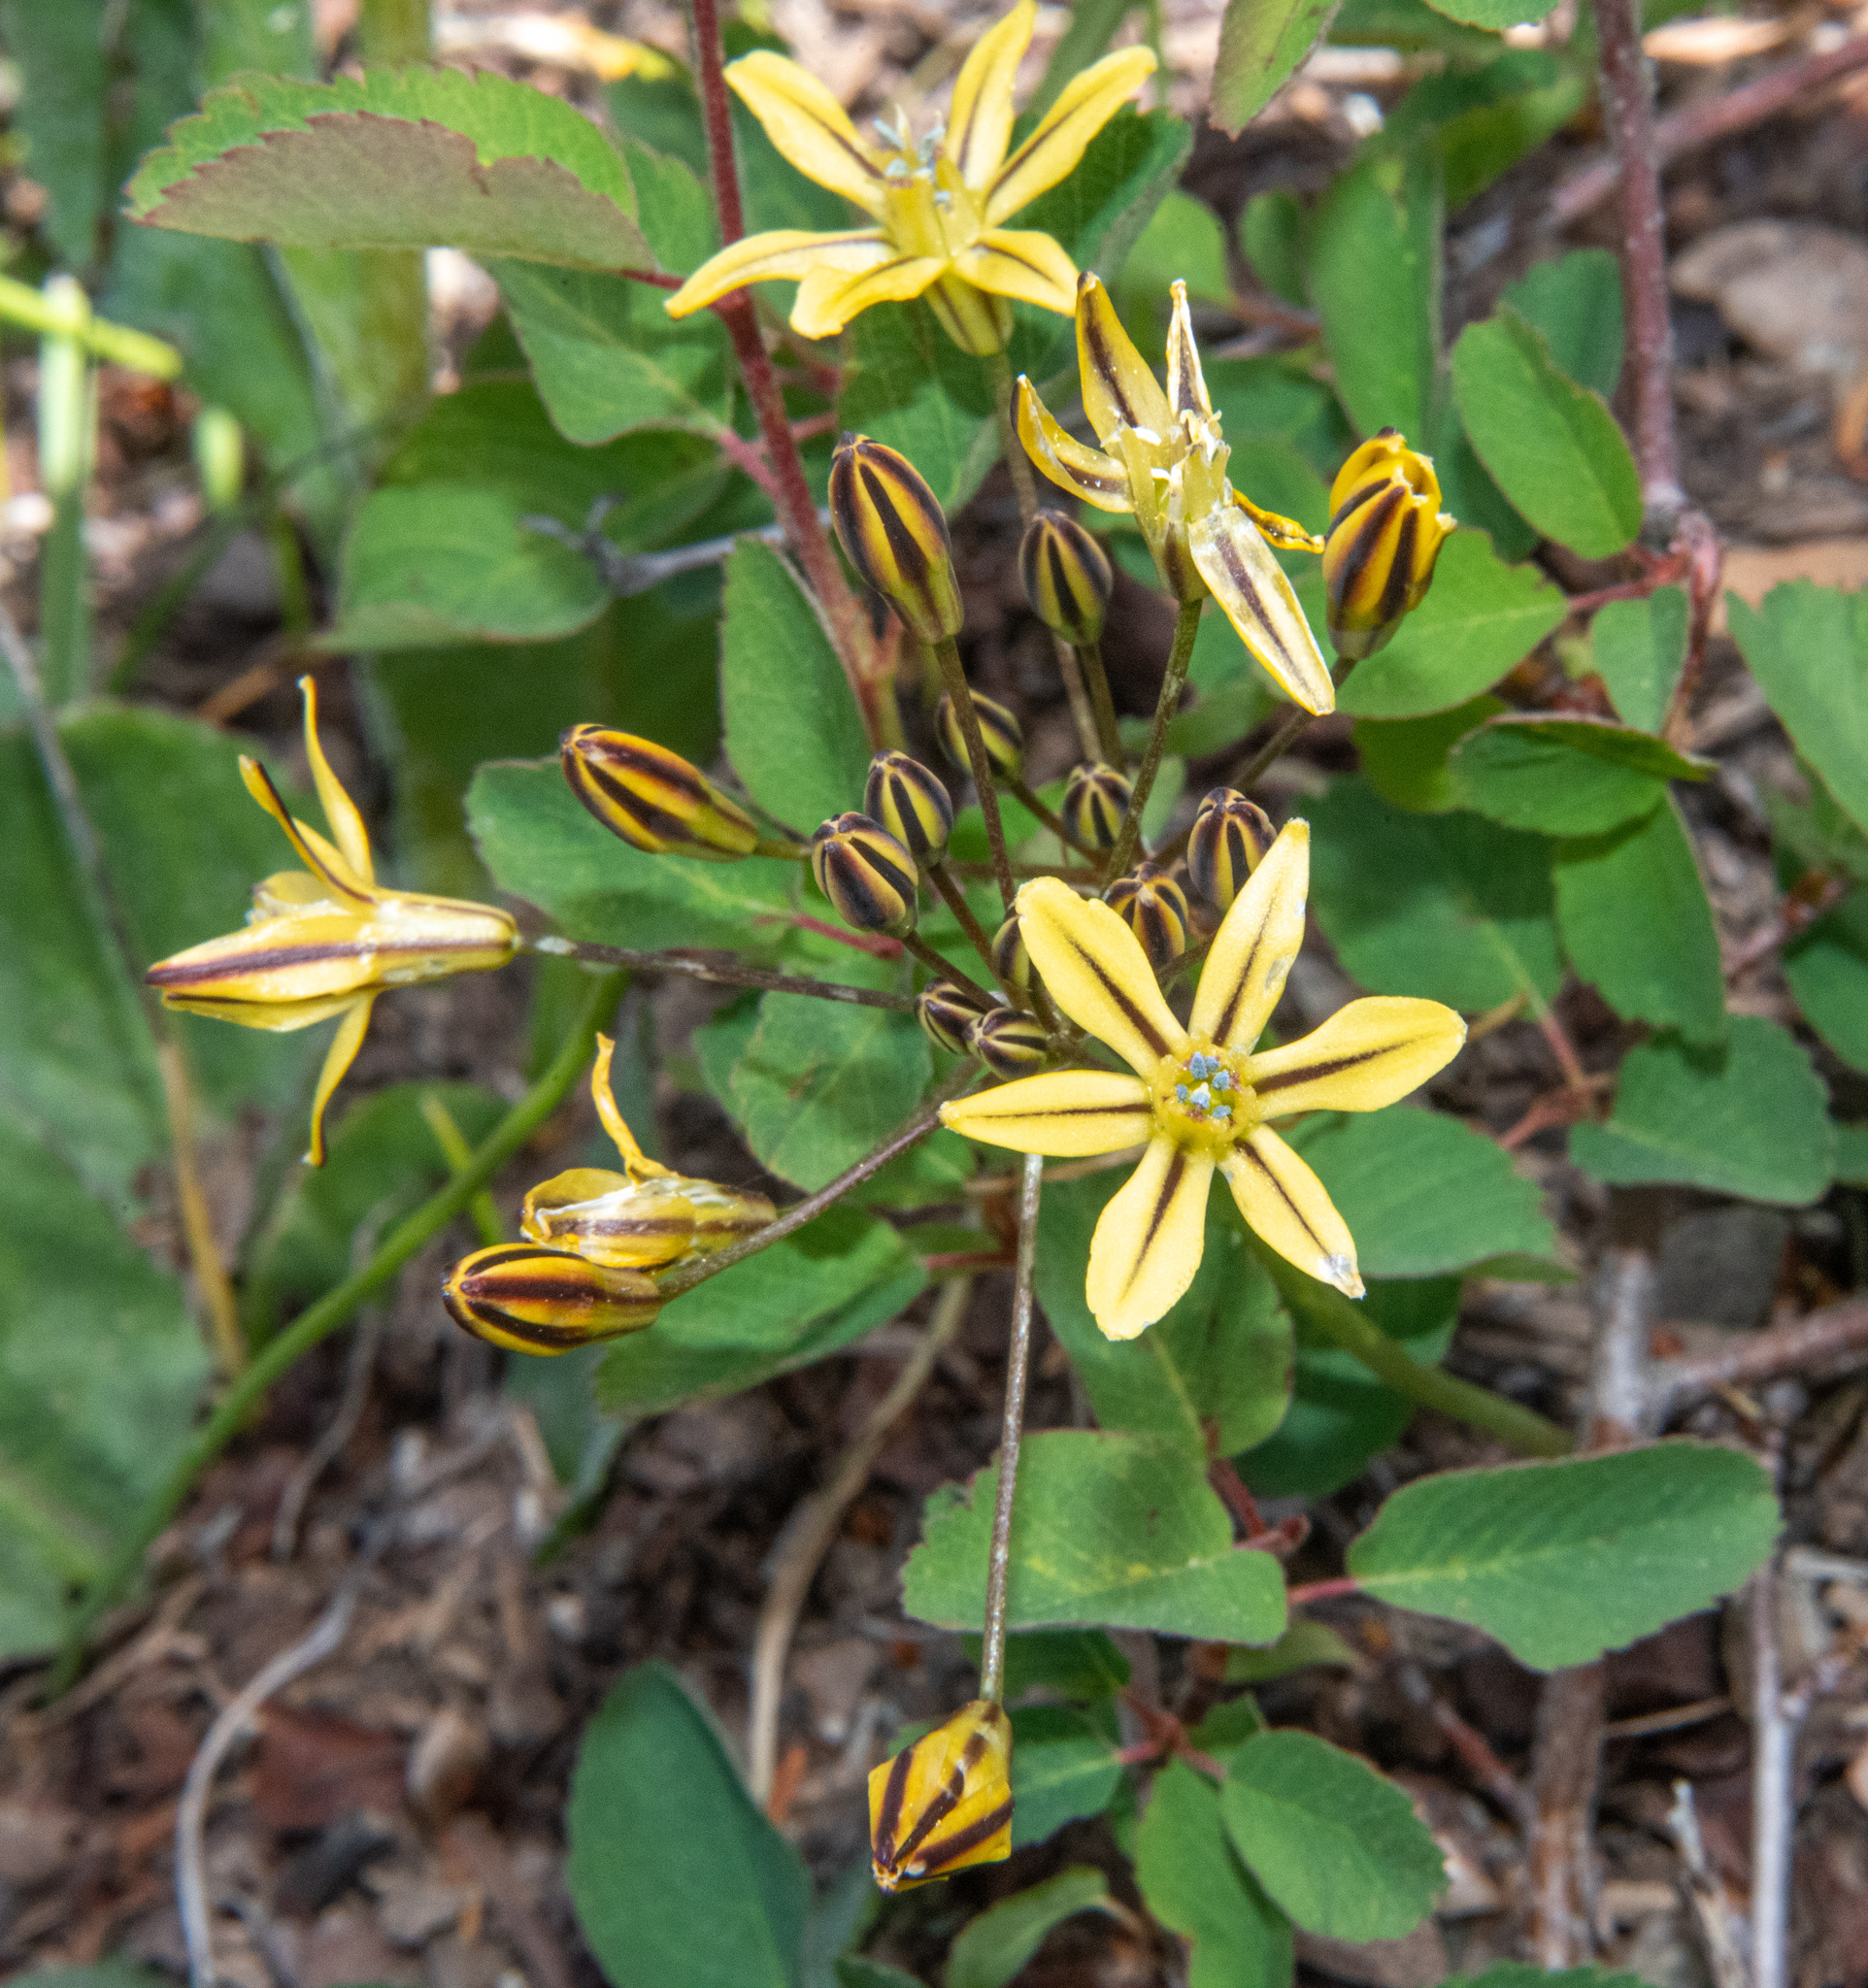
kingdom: Plantae
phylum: Tracheophyta
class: Liliopsida
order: Asparagales
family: Asparagaceae
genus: Triteleia
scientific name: Triteleia ixioides
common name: Yellow-brodiaea
